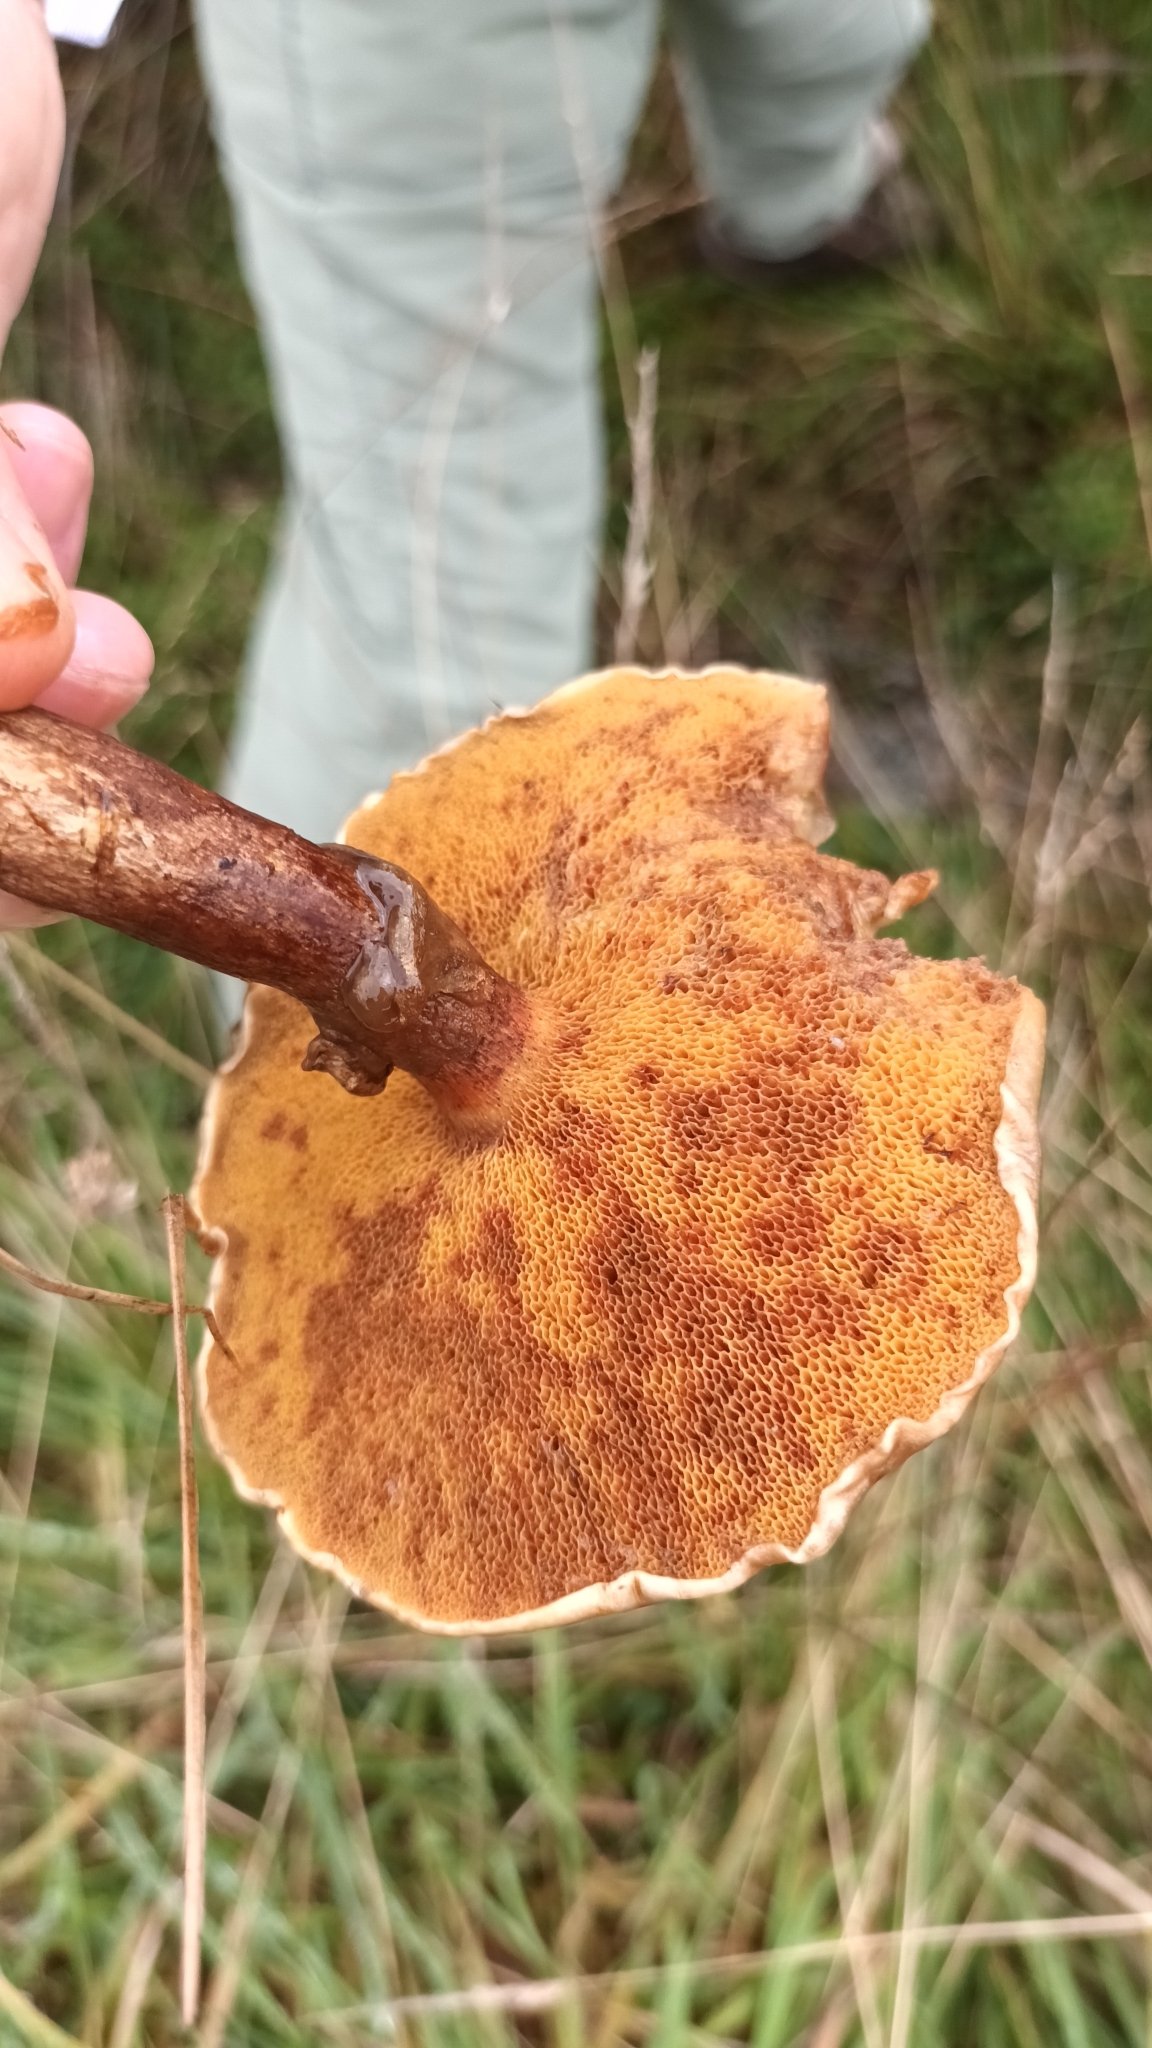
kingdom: Fungi
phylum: Basidiomycota
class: Agaricomycetes
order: Boletales
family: Suillaceae
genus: Suillus
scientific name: Suillus grevillei
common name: Larch bolete
